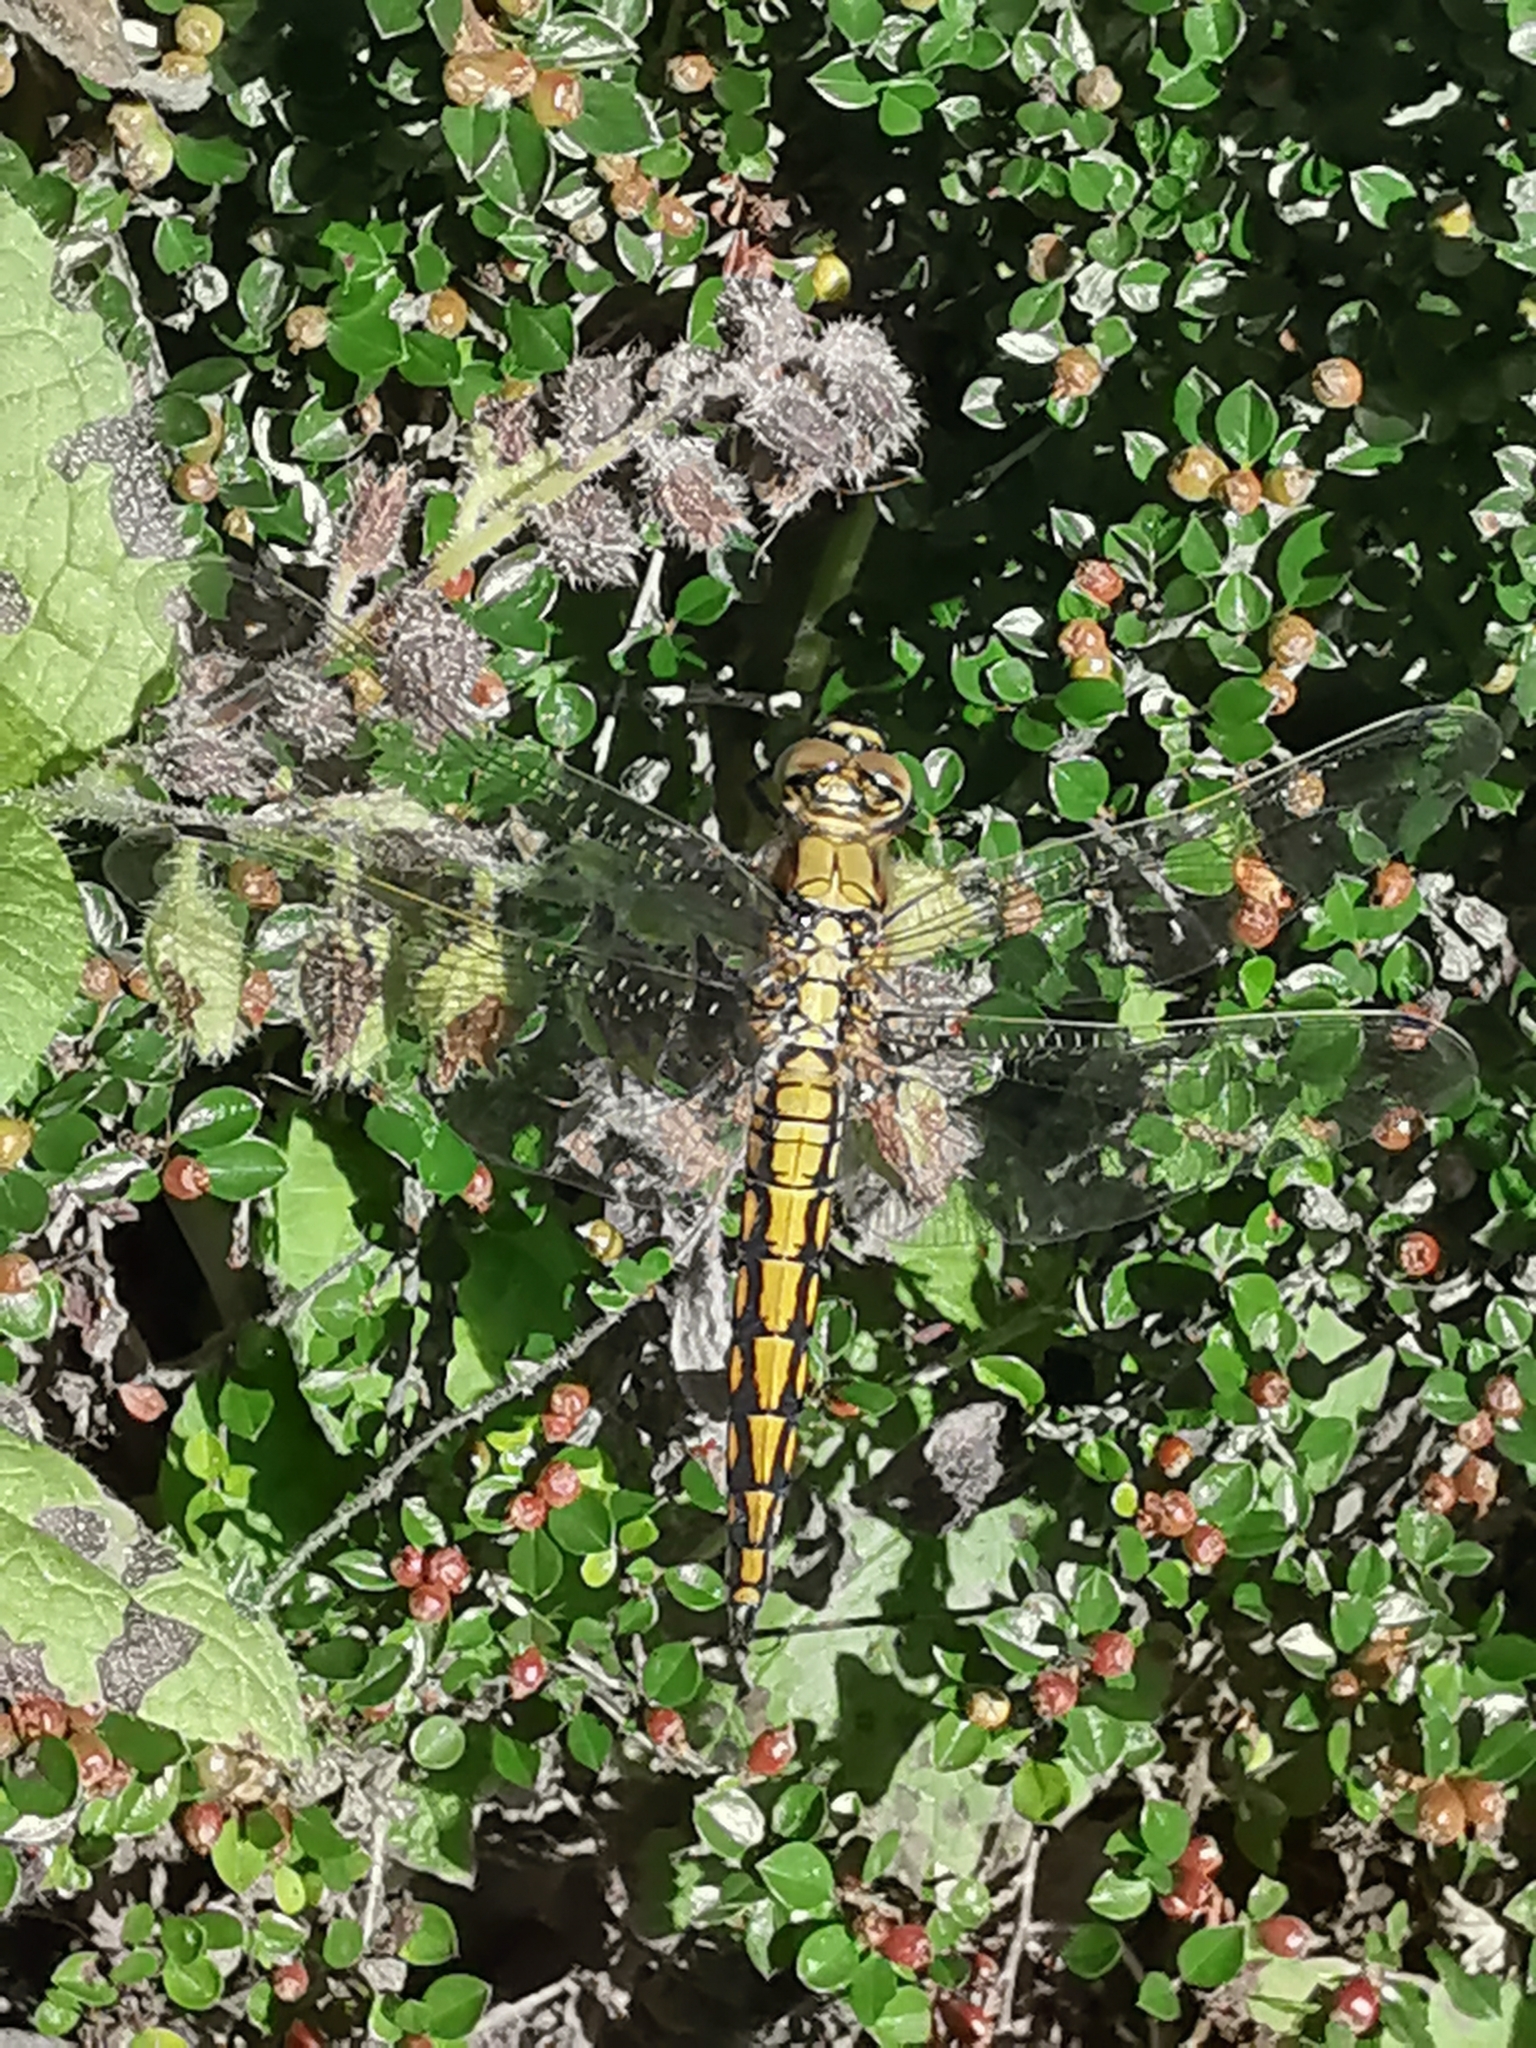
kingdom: Animalia
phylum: Arthropoda
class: Insecta
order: Odonata
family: Libellulidae
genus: Orthetrum
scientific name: Orthetrum cancellatum
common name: Black-tailed skimmer
